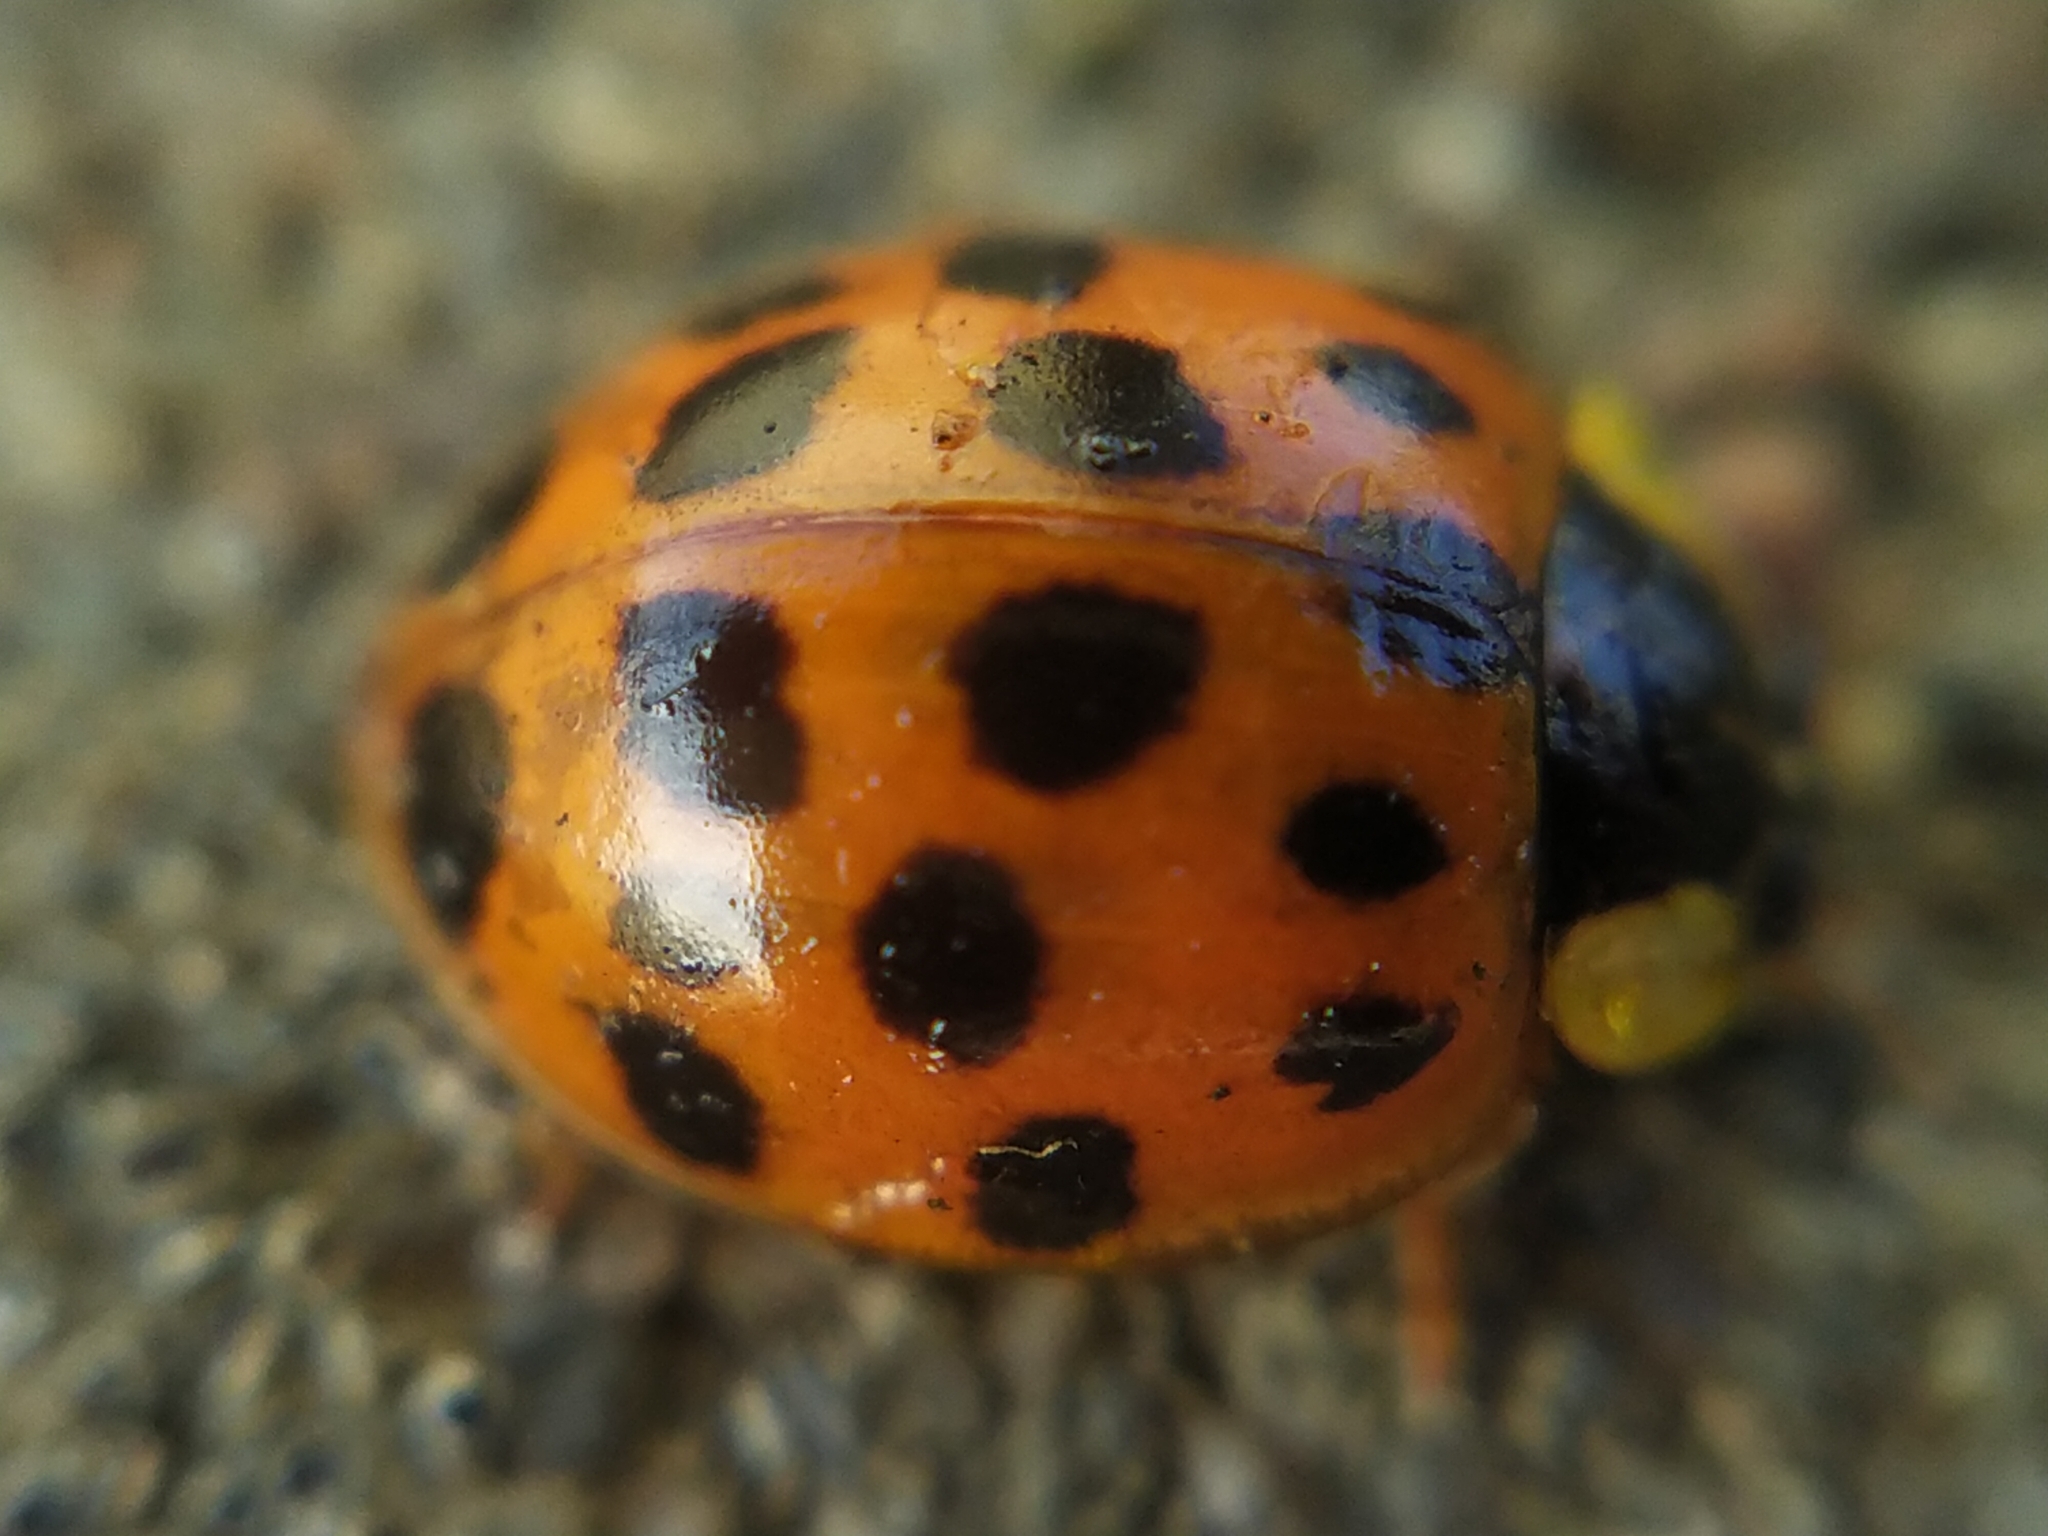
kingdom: Animalia
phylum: Arthropoda
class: Insecta
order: Coleoptera
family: Coccinellidae
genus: Harmonia
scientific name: Harmonia axyridis
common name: Harlequin ladybird
